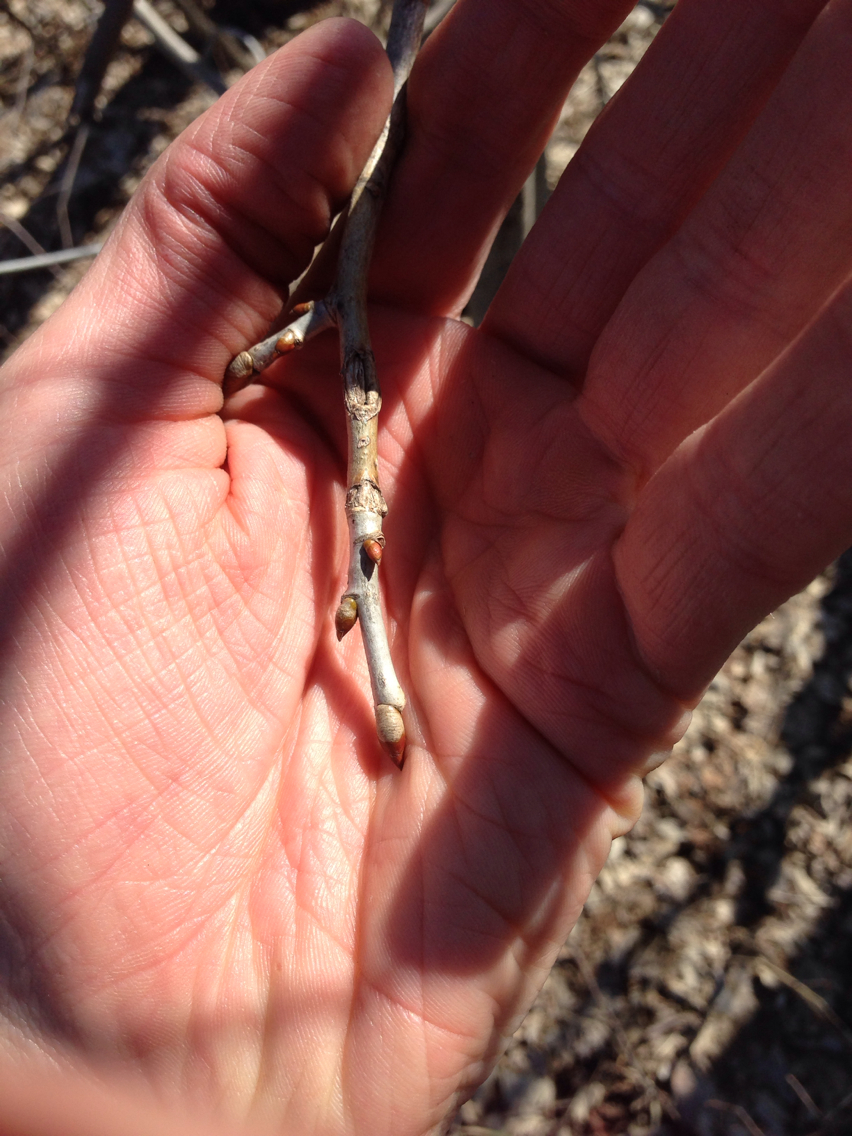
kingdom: Plantae
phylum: Tracheophyta
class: Magnoliopsida
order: Malvales
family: Malvaceae
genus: Tilia
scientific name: Tilia americana
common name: Basswood
